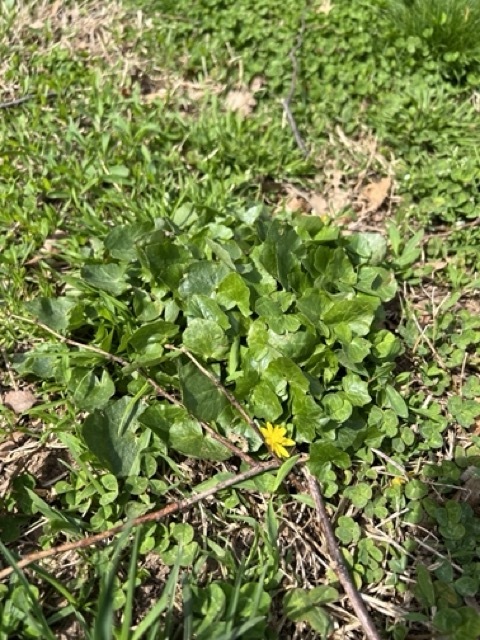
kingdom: Plantae
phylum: Tracheophyta
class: Magnoliopsida
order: Ranunculales
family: Ranunculaceae
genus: Ficaria
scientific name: Ficaria verna
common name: Lesser celandine
